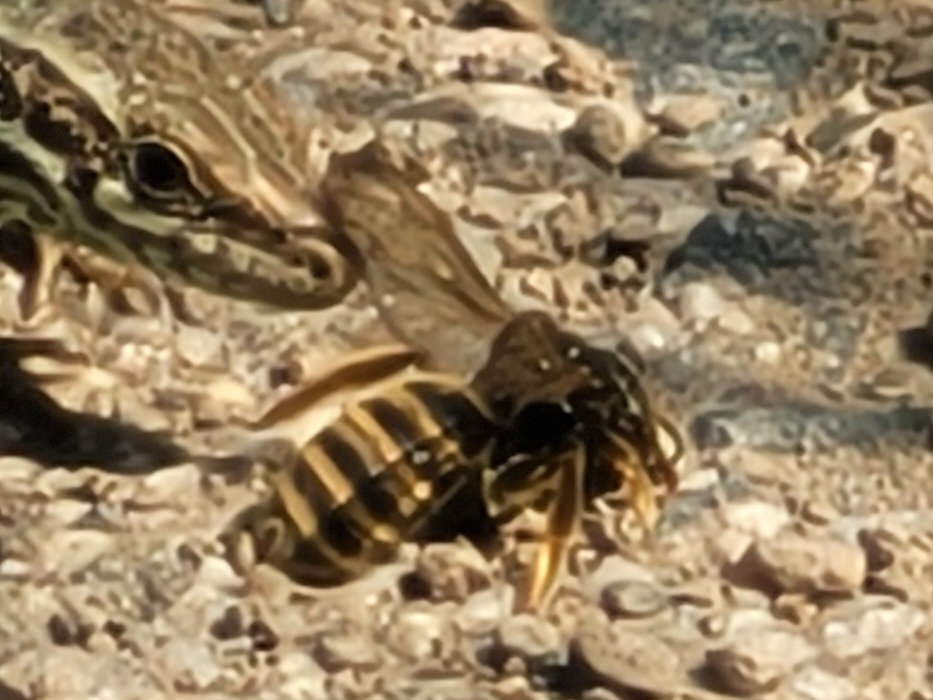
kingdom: Animalia
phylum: Arthropoda
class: Insecta
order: Hymenoptera
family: Halictidae
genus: Halictus
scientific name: Halictus scabiosae
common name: Great banded furrow bee
